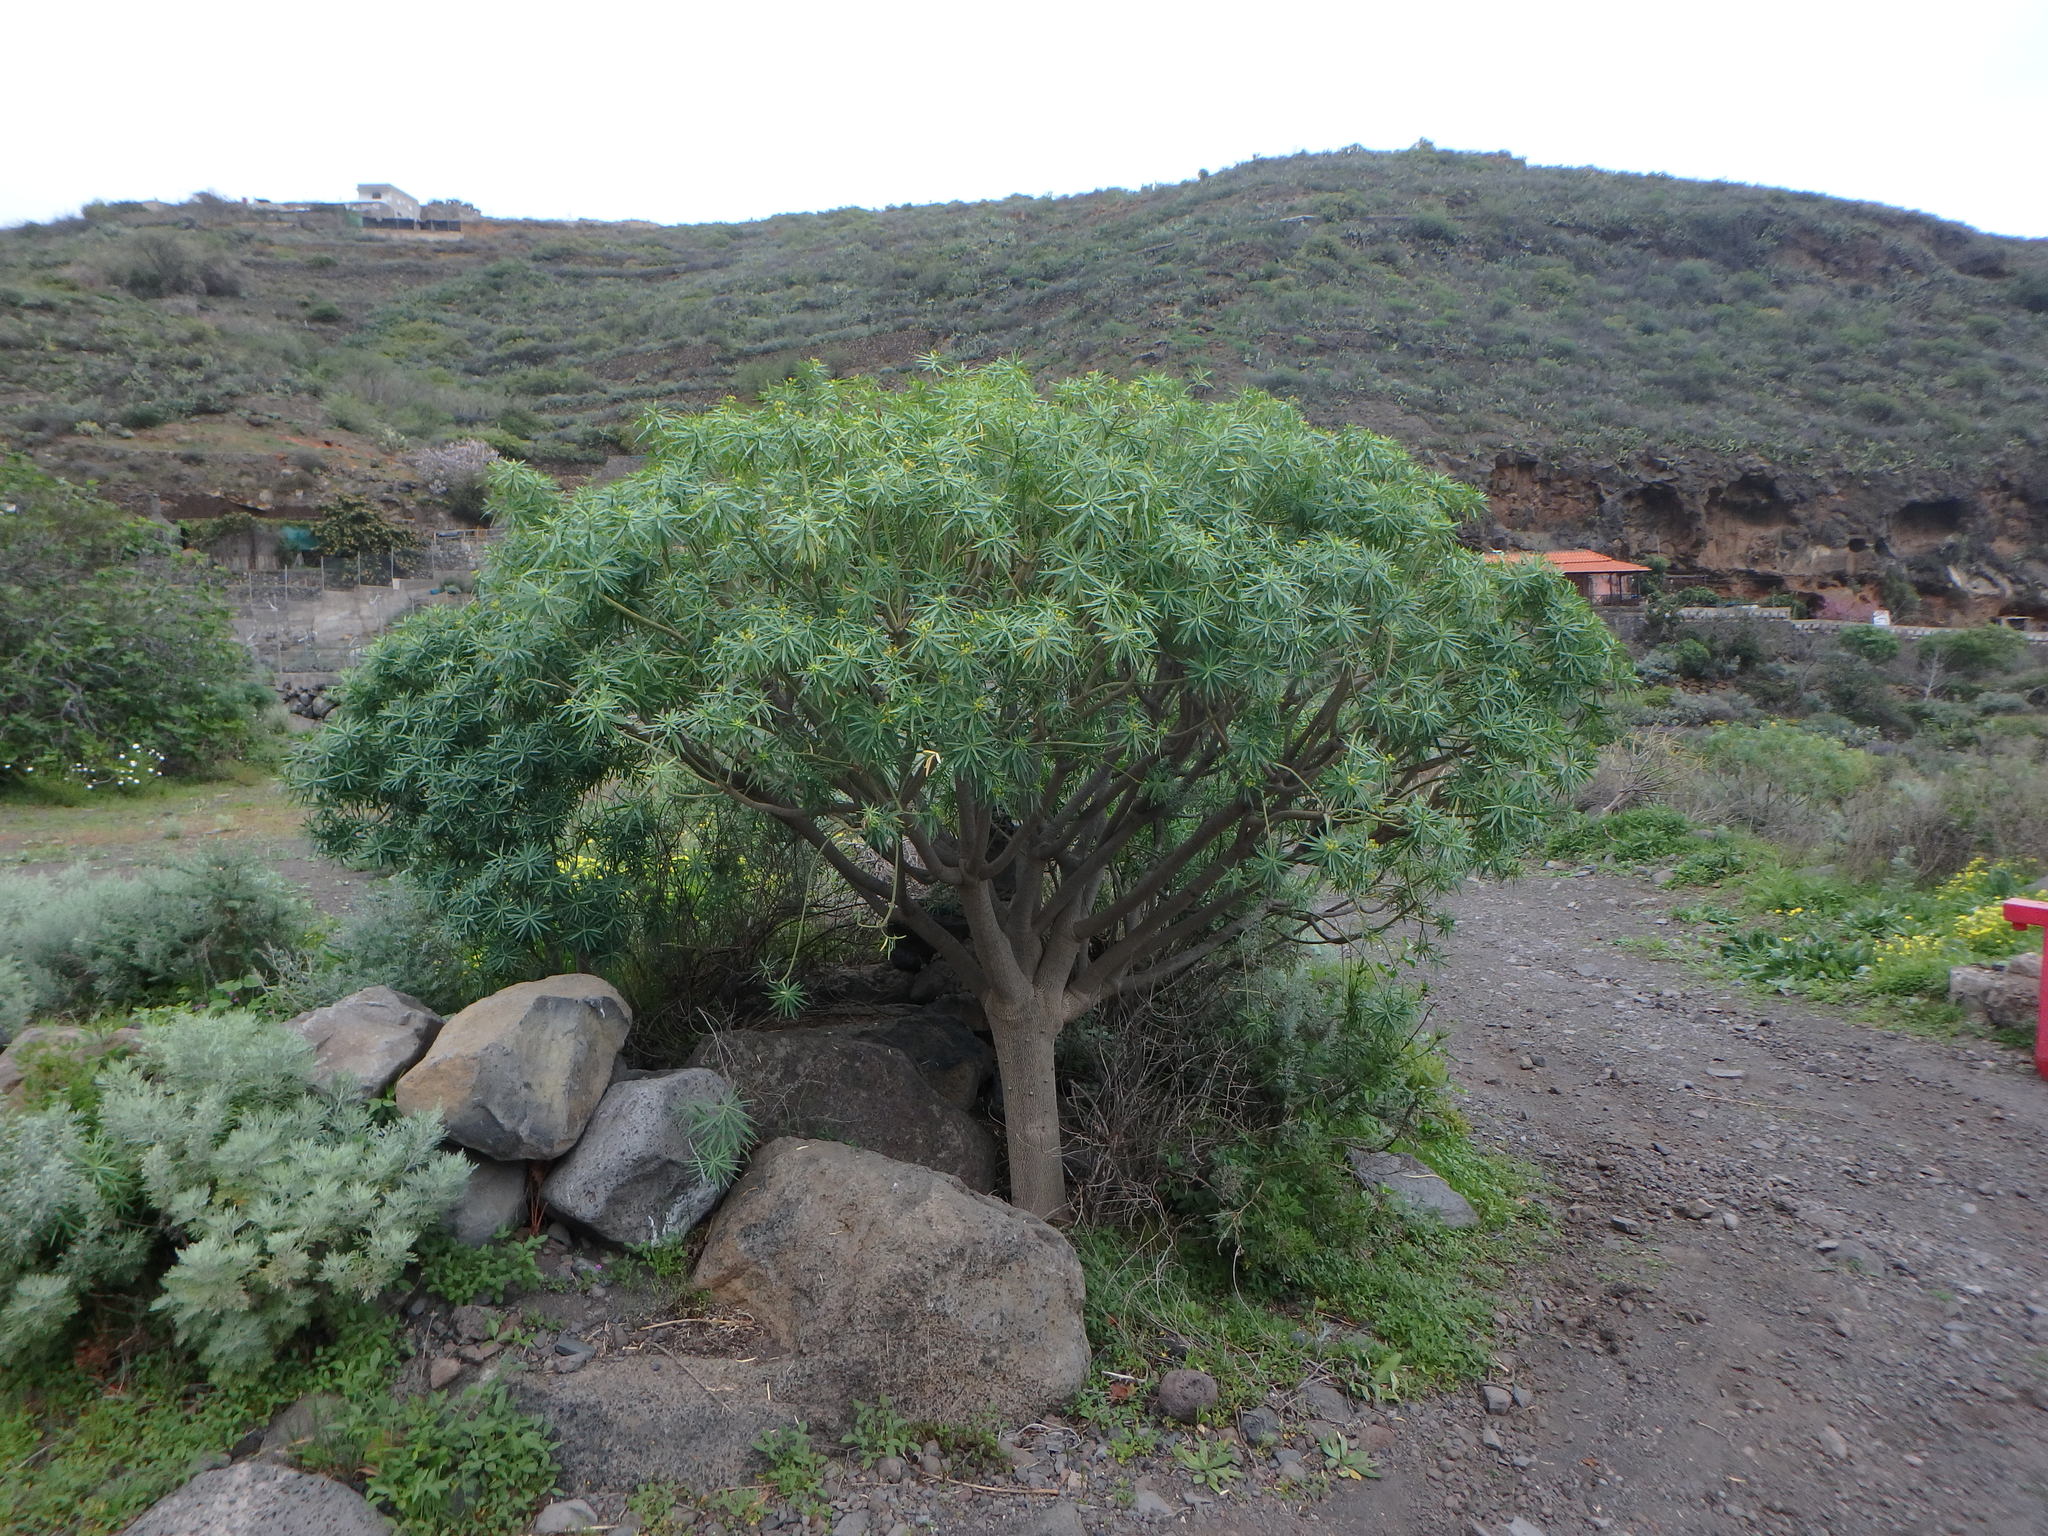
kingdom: Plantae
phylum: Tracheophyta
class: Magnoliopsida
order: Malpighiales
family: Euphorbiaceae
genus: Euphorbia
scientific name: Euphorbia lamarckii
